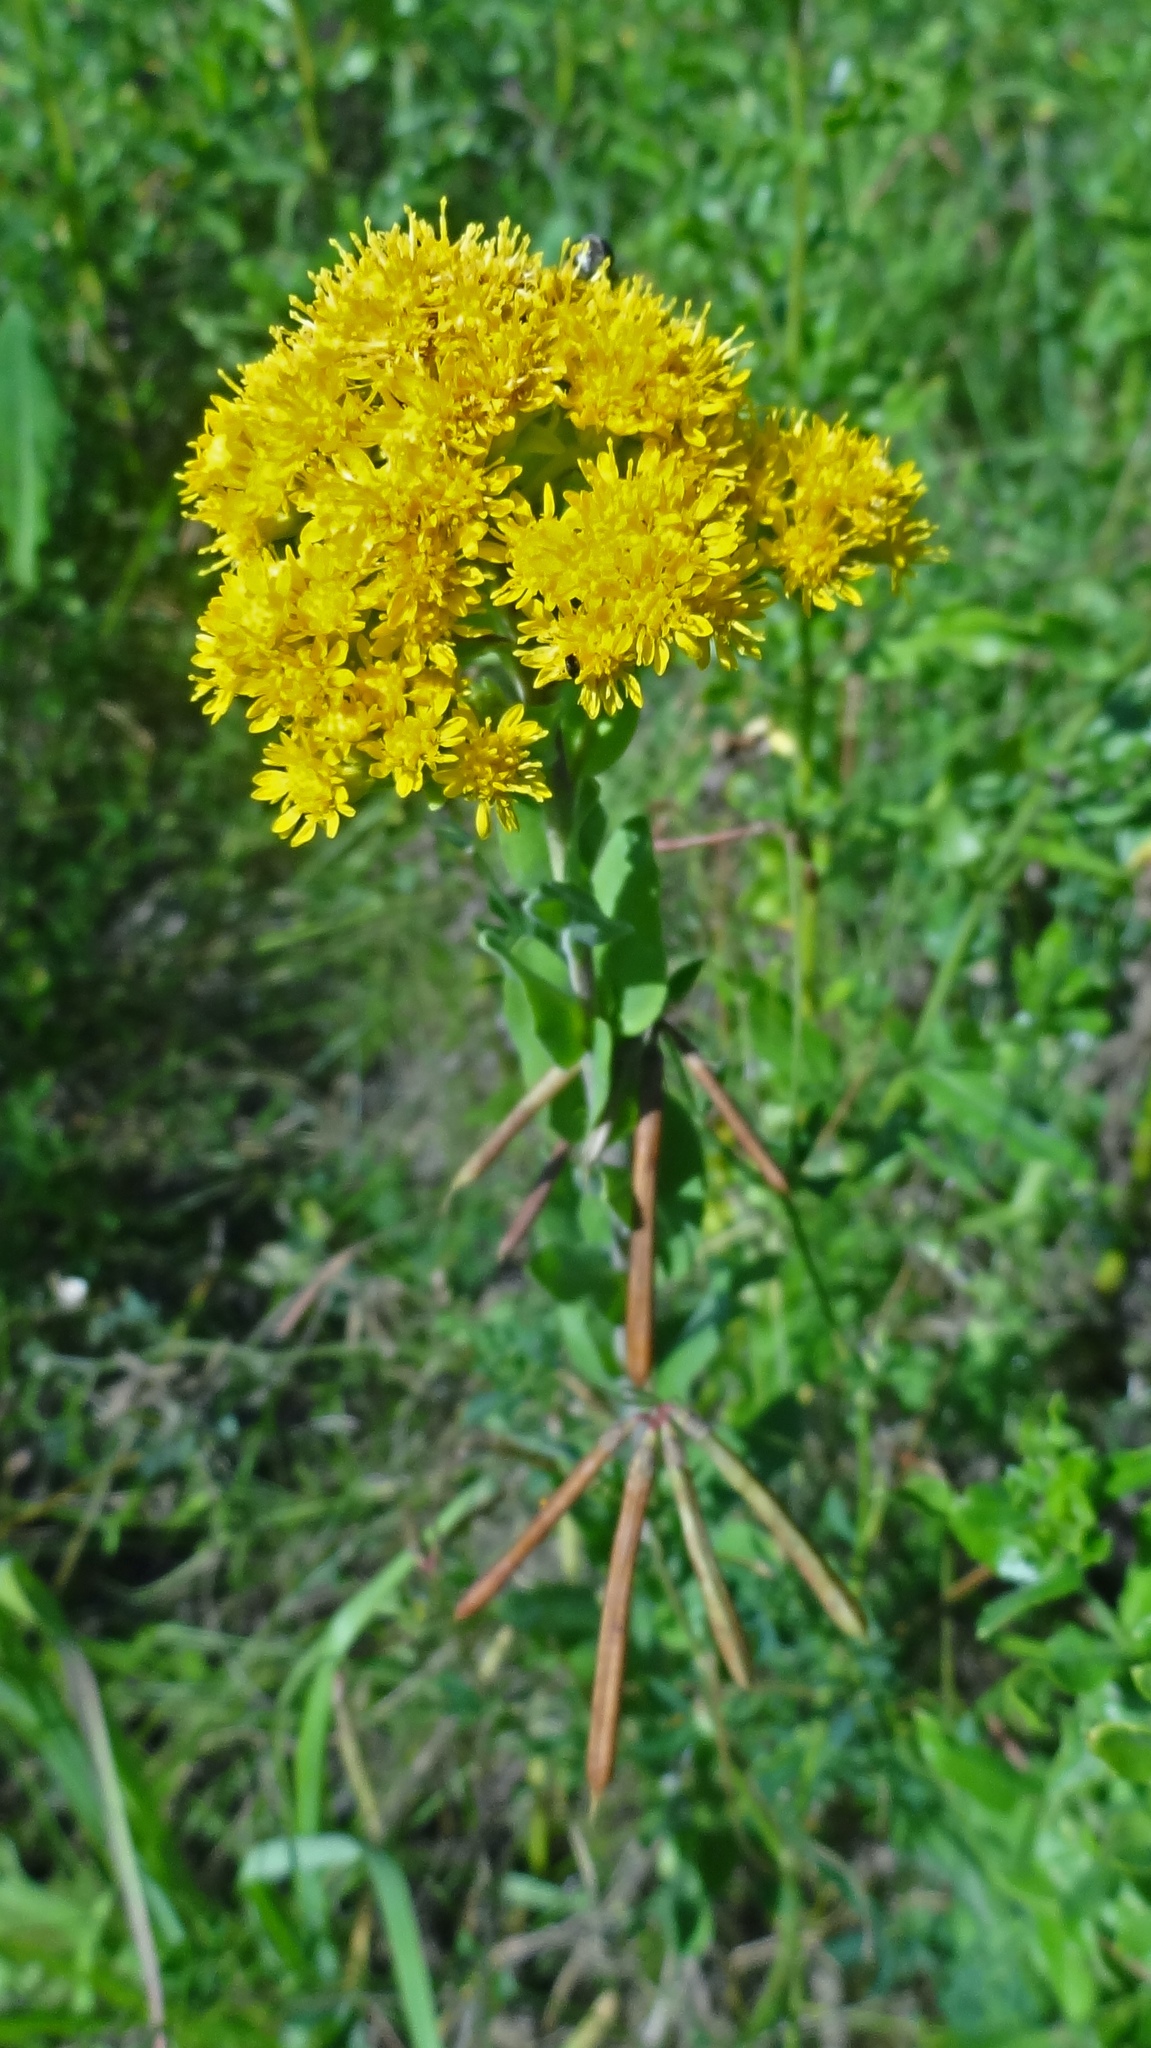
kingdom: Plantae
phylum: Tracheophyta
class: Magnoliopsida
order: Asterales
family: Asteraceae
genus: Solidago
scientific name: Solidago rigida
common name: Rigid goldenrod
